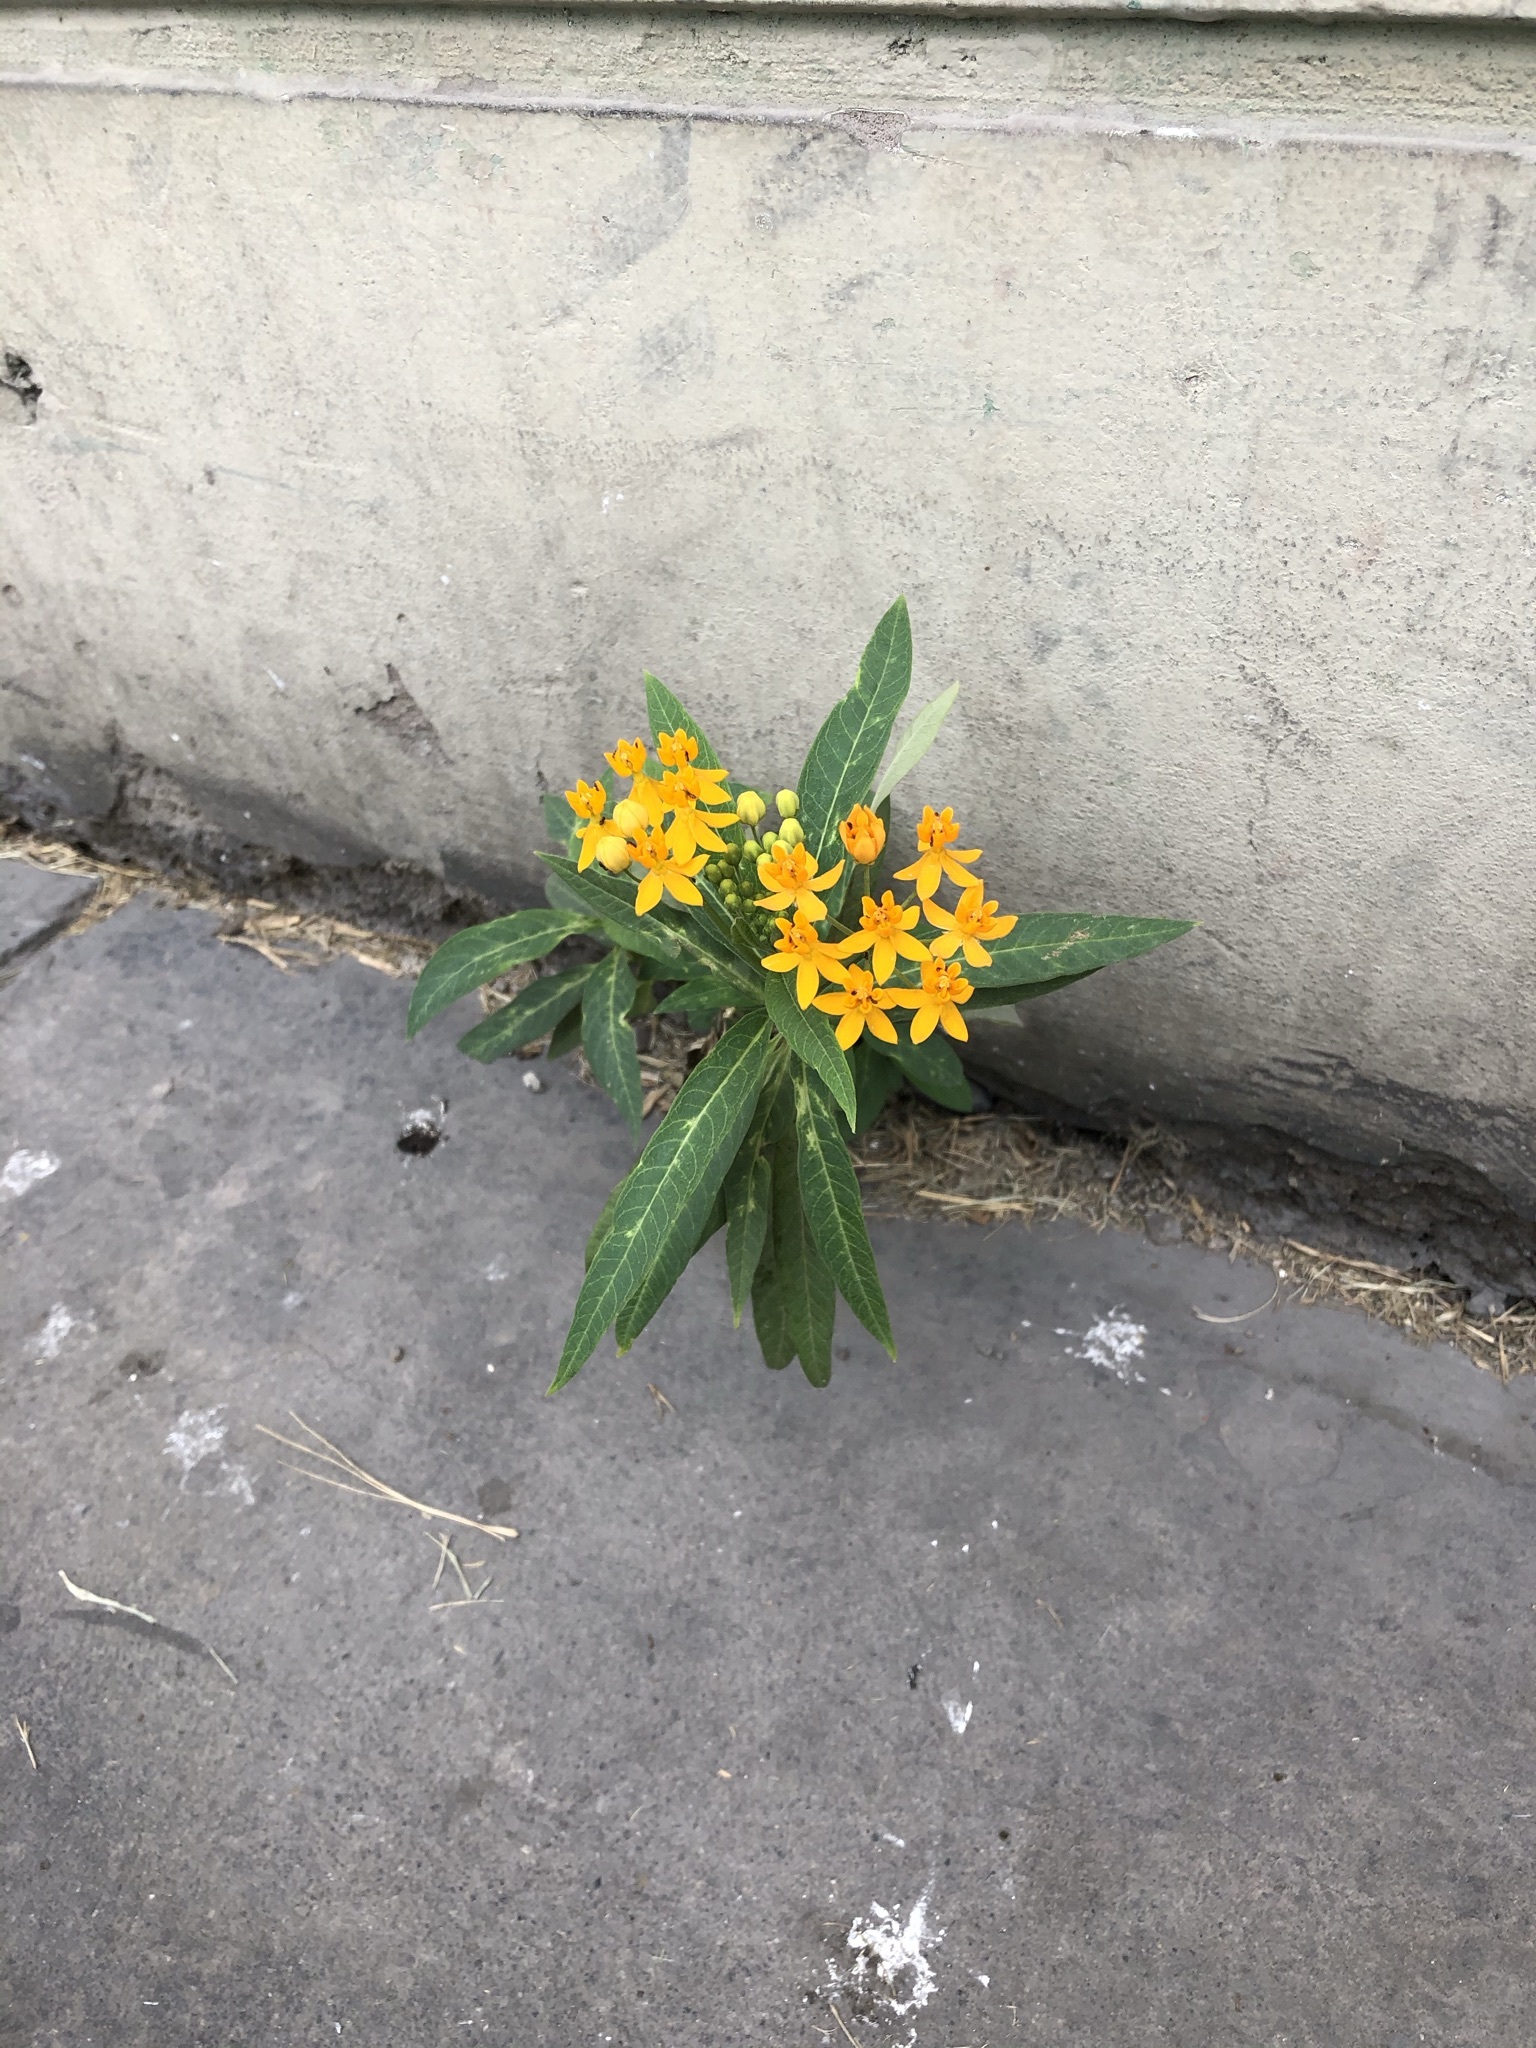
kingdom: Plantae
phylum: Tracheophyta
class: Magnoliopsida
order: Gentianales
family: Apocynaceae
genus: Asclepias
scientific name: Asclepias curassavica
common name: Bloodflower
